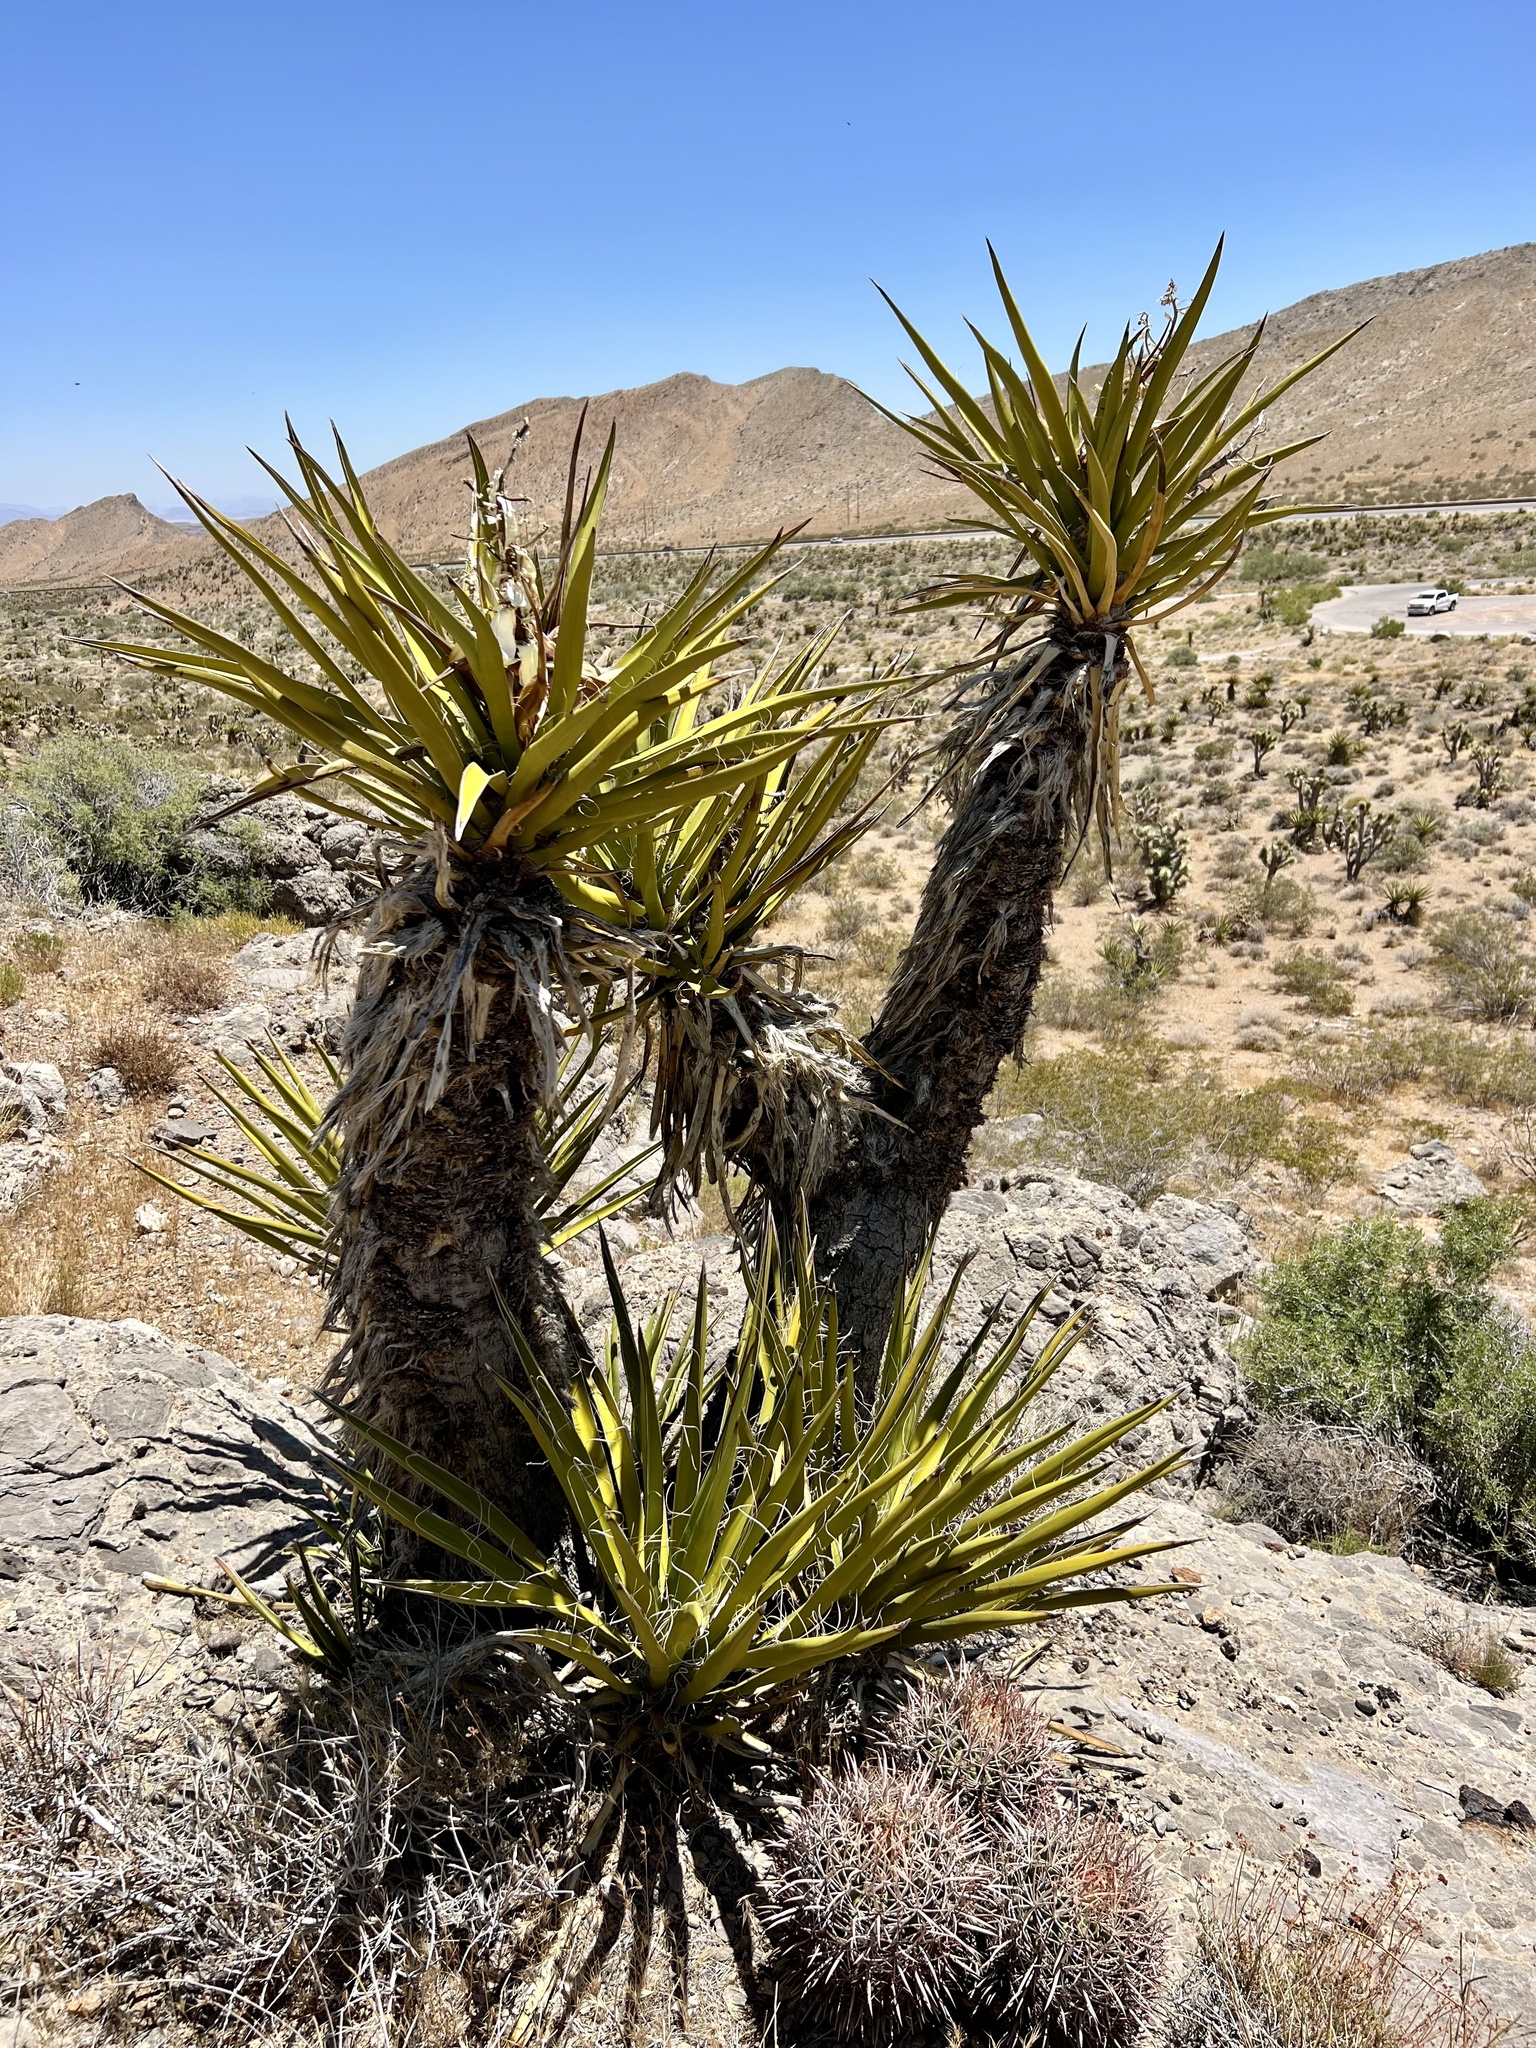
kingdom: Plantae
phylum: Tracheophyta
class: Liliopsida
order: Asparagales
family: Asparagaceae
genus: Yucca
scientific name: Yucca schidigera
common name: Mojave yucca
